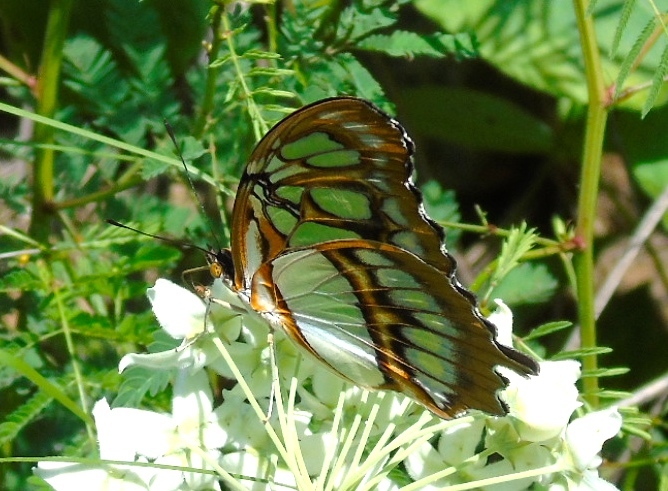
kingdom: Animalia
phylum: Arthropoda
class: Insecta
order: Lepidoptera
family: Nymphalidae
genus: Siproeta
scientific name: Siproeta stelenes
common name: Malachite
